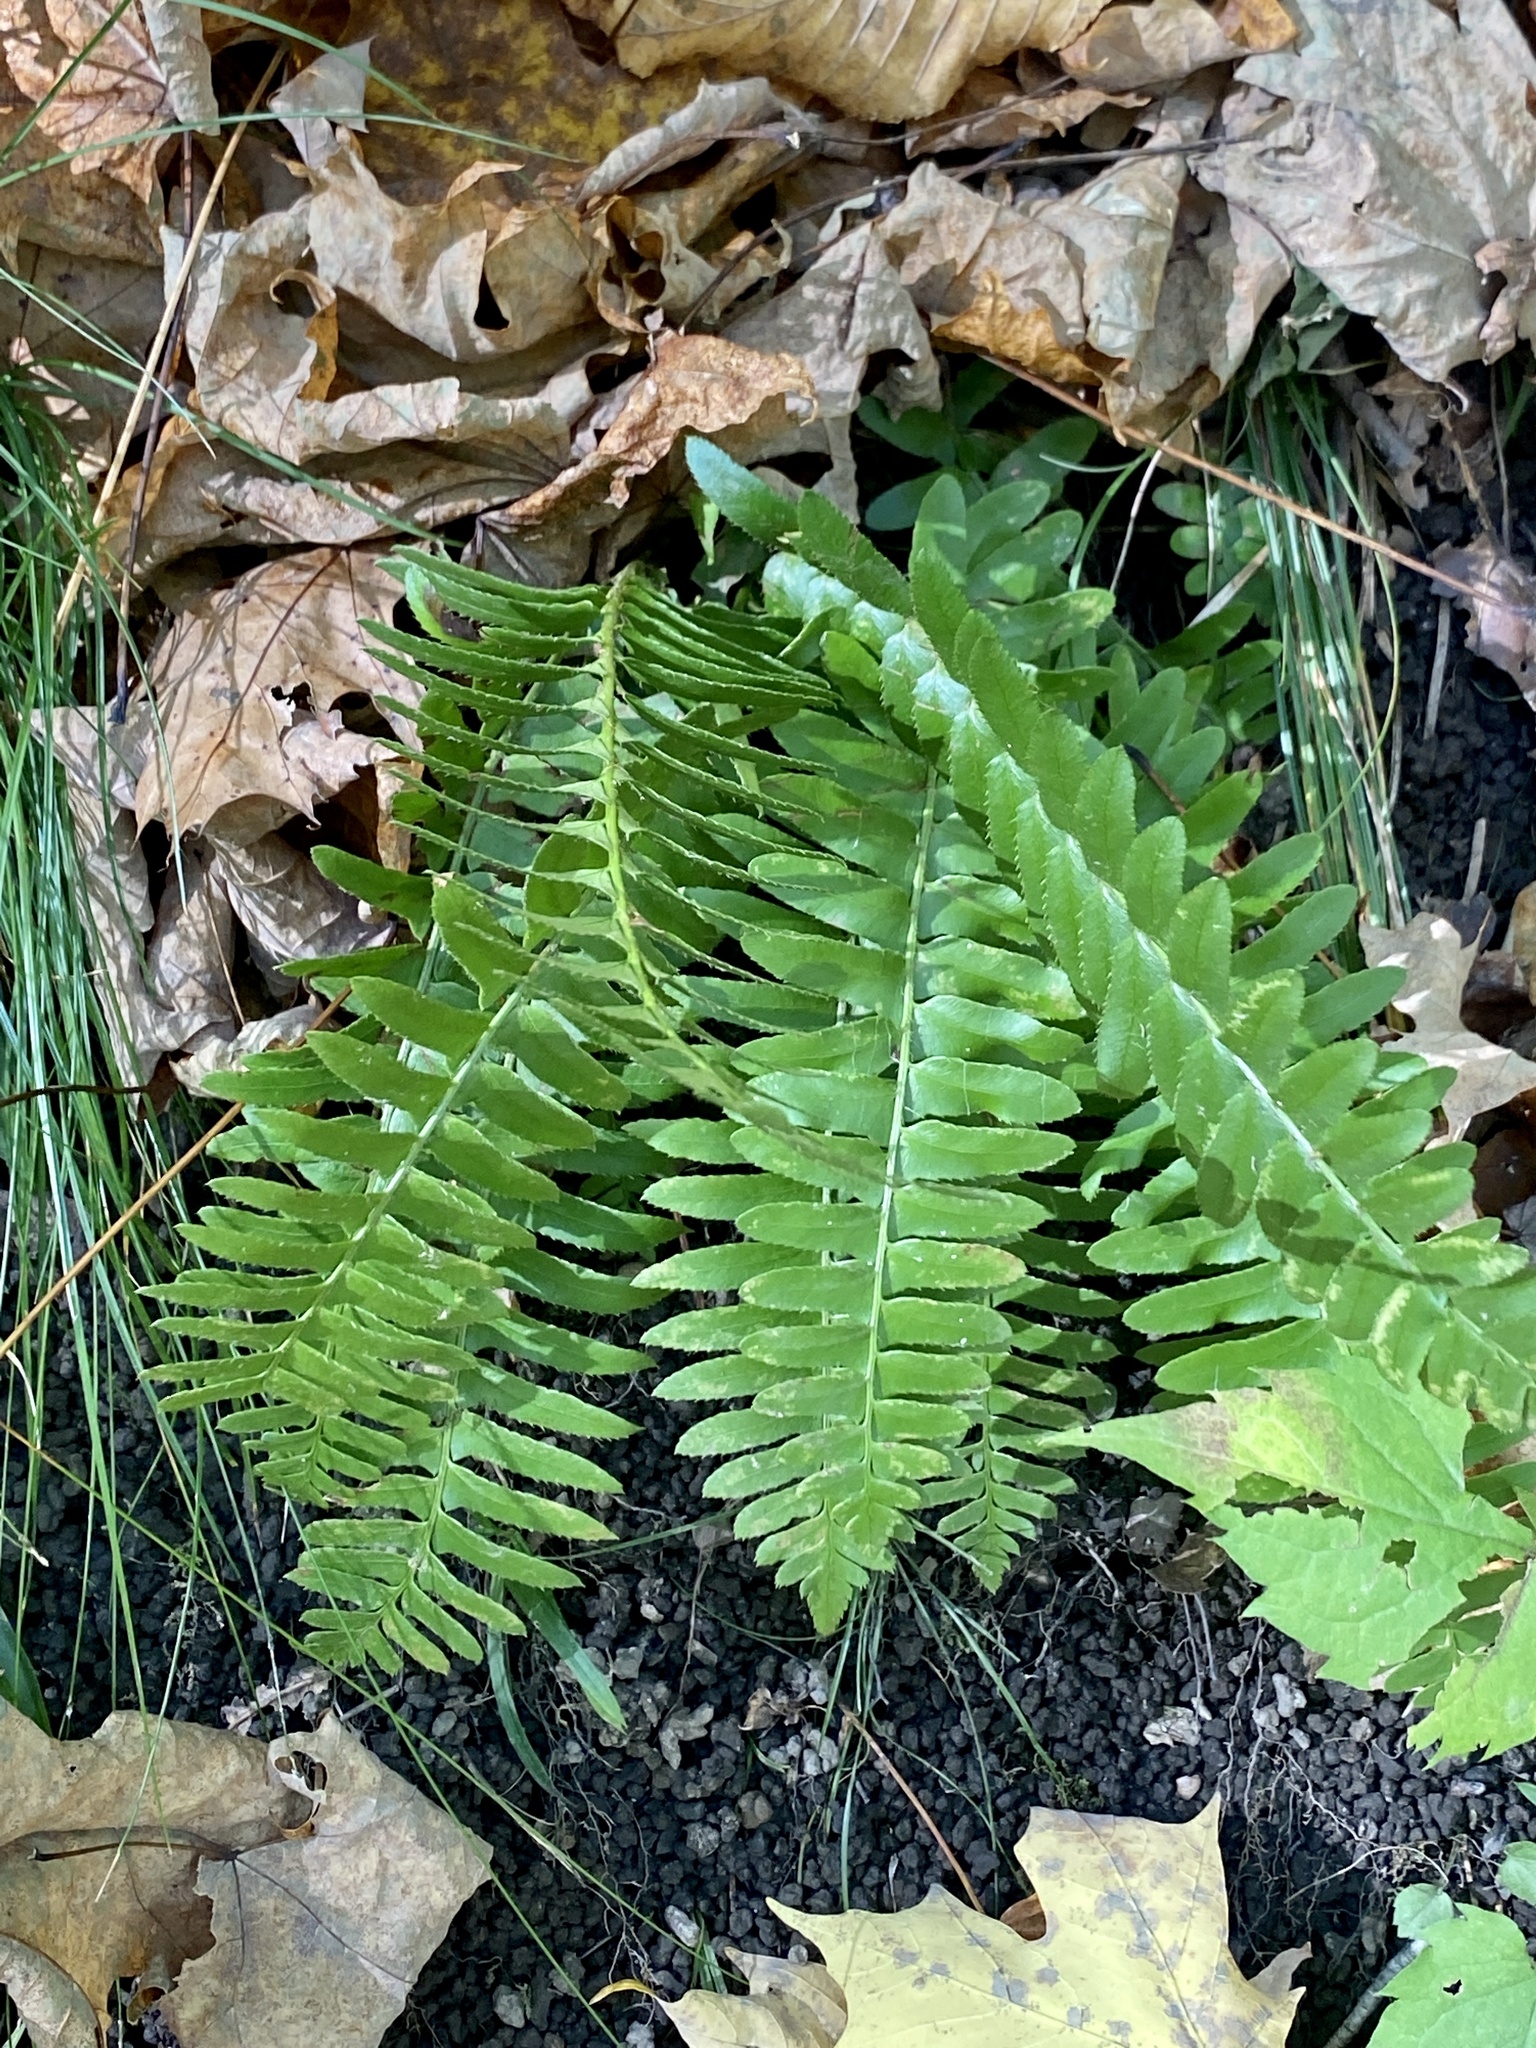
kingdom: Plantae
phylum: Tracheophyta
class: Polypodiopsida
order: Polypodiales
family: Dryopteridaceae
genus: Polystichum
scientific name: Polystichum acrostichoides
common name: Christmas fern
